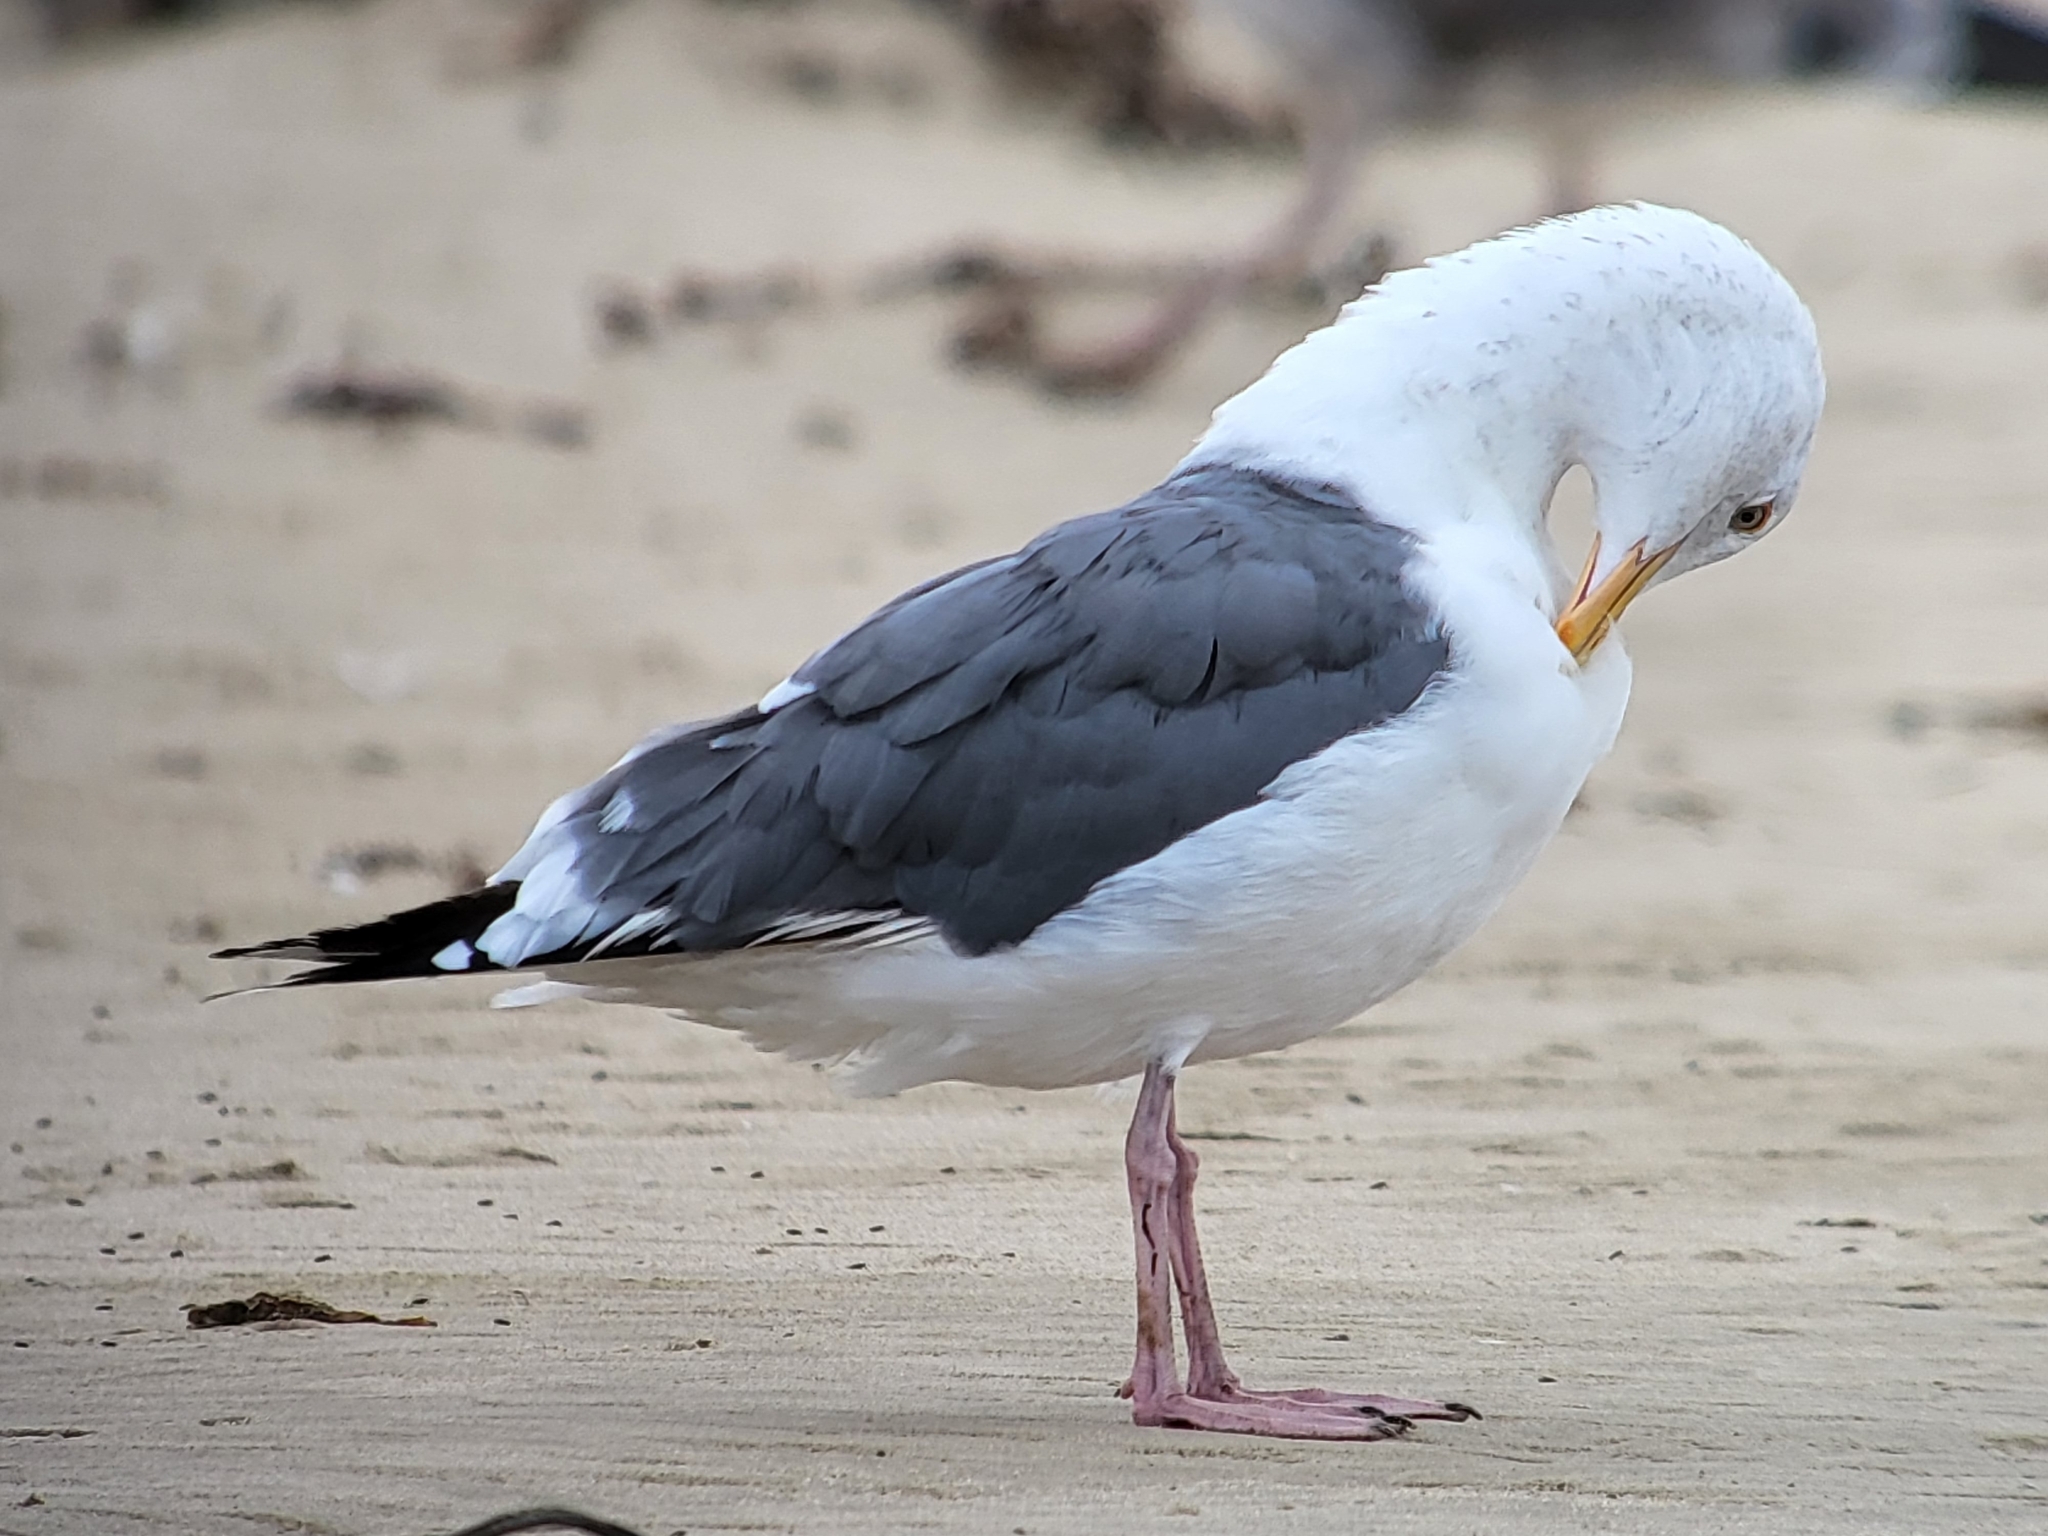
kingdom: Animalia
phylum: Chordata
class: Aves
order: Charadriiformes
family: Laridae
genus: Larus
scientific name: Larus occidentalis
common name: Western gull
